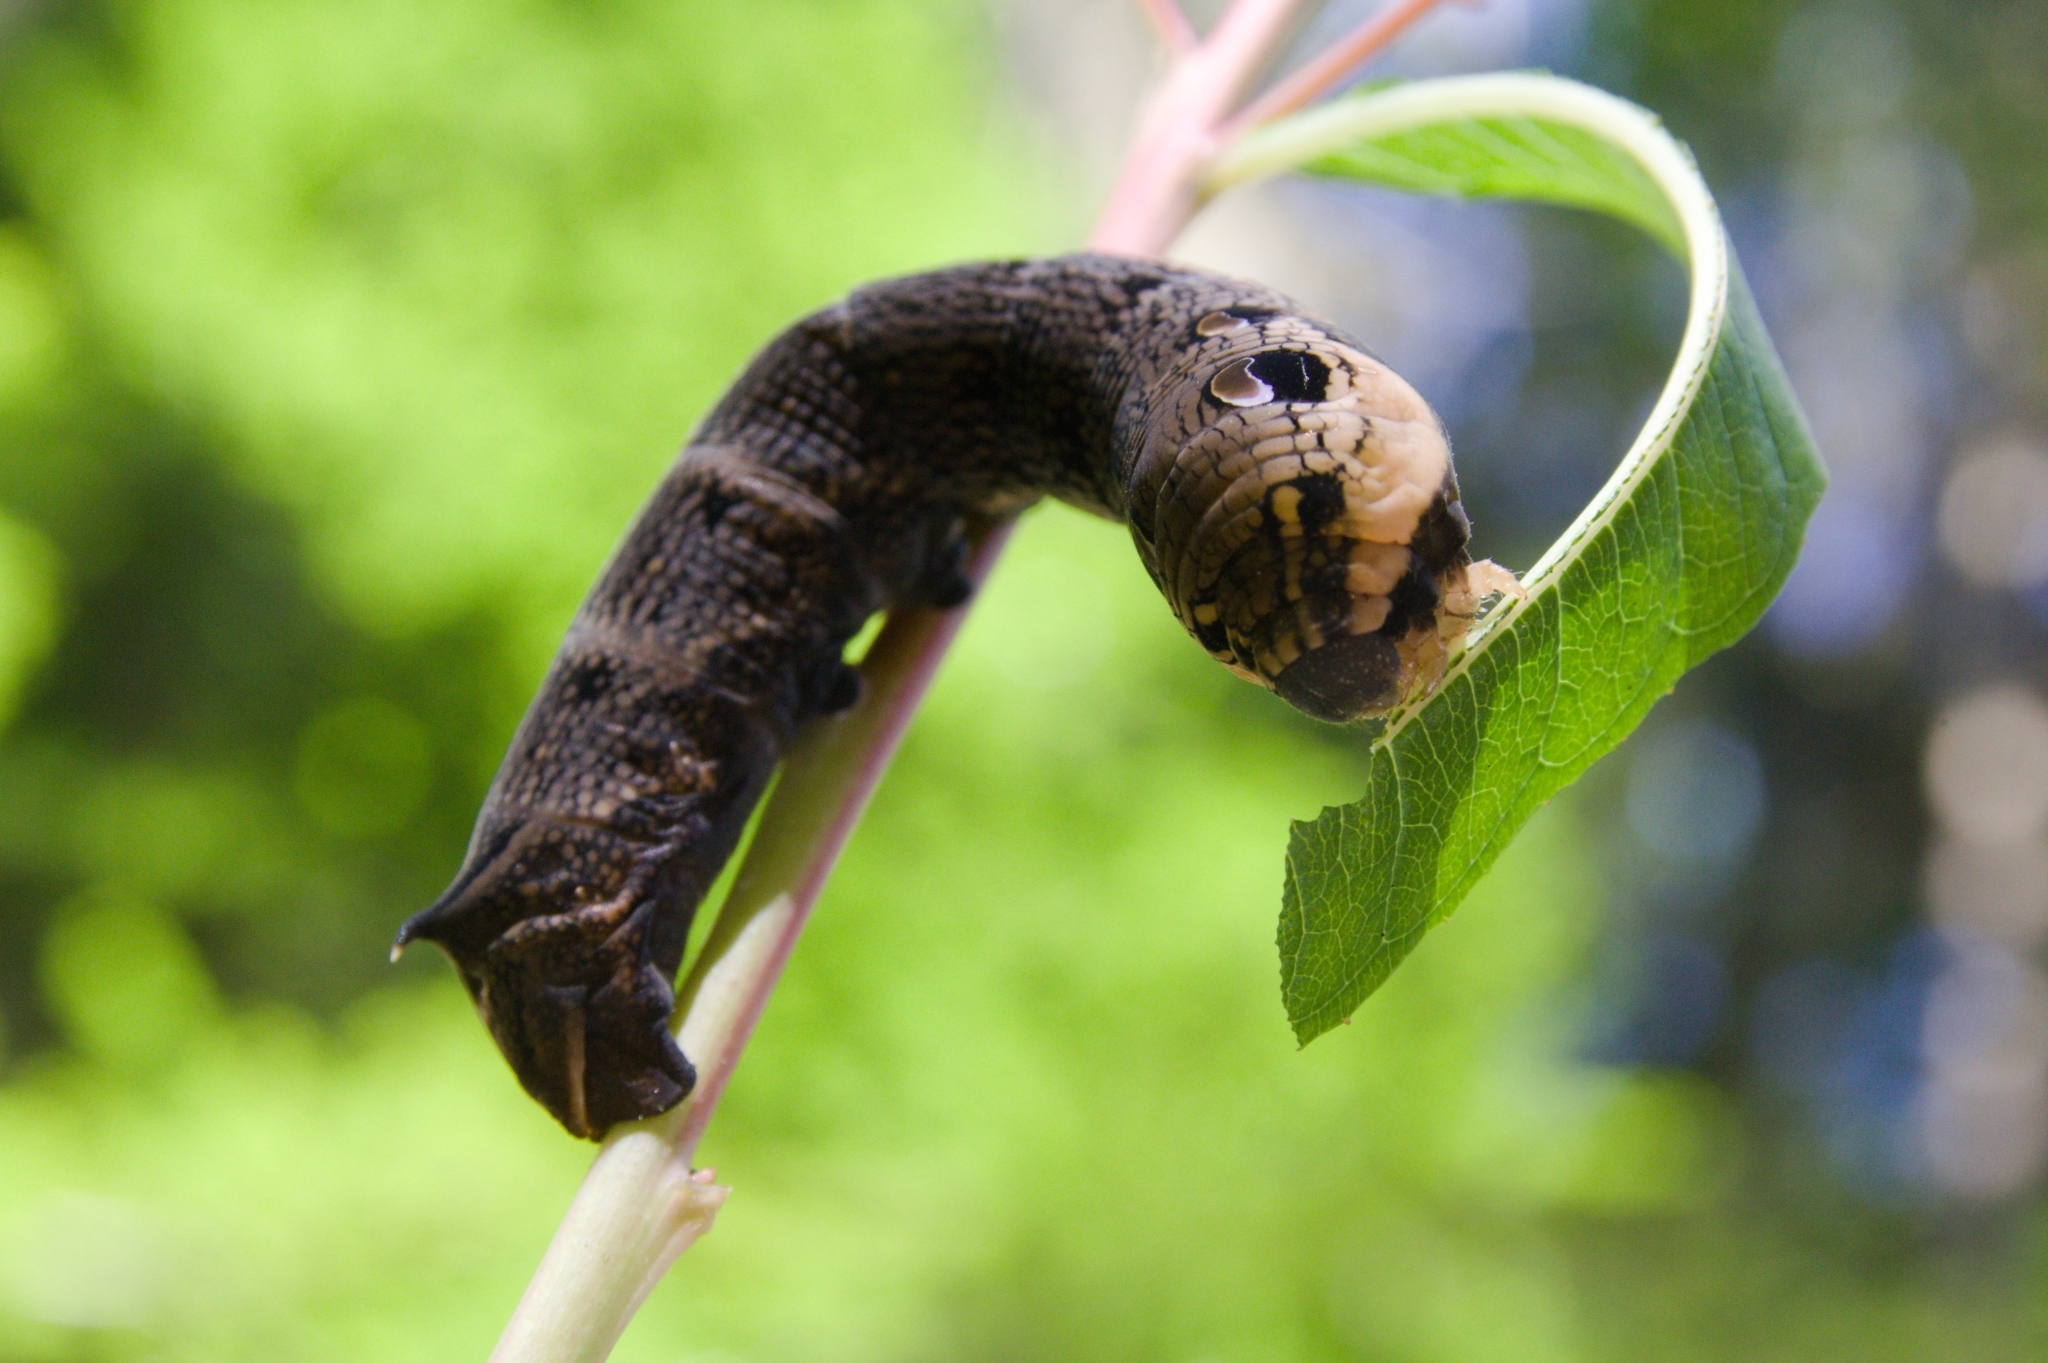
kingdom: Animalia
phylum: Arthropoda
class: Insecta
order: Lepidoptera
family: Sphingidae
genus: Deilephila
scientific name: Deilephila elpenor
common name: Elephant hawk-moth
